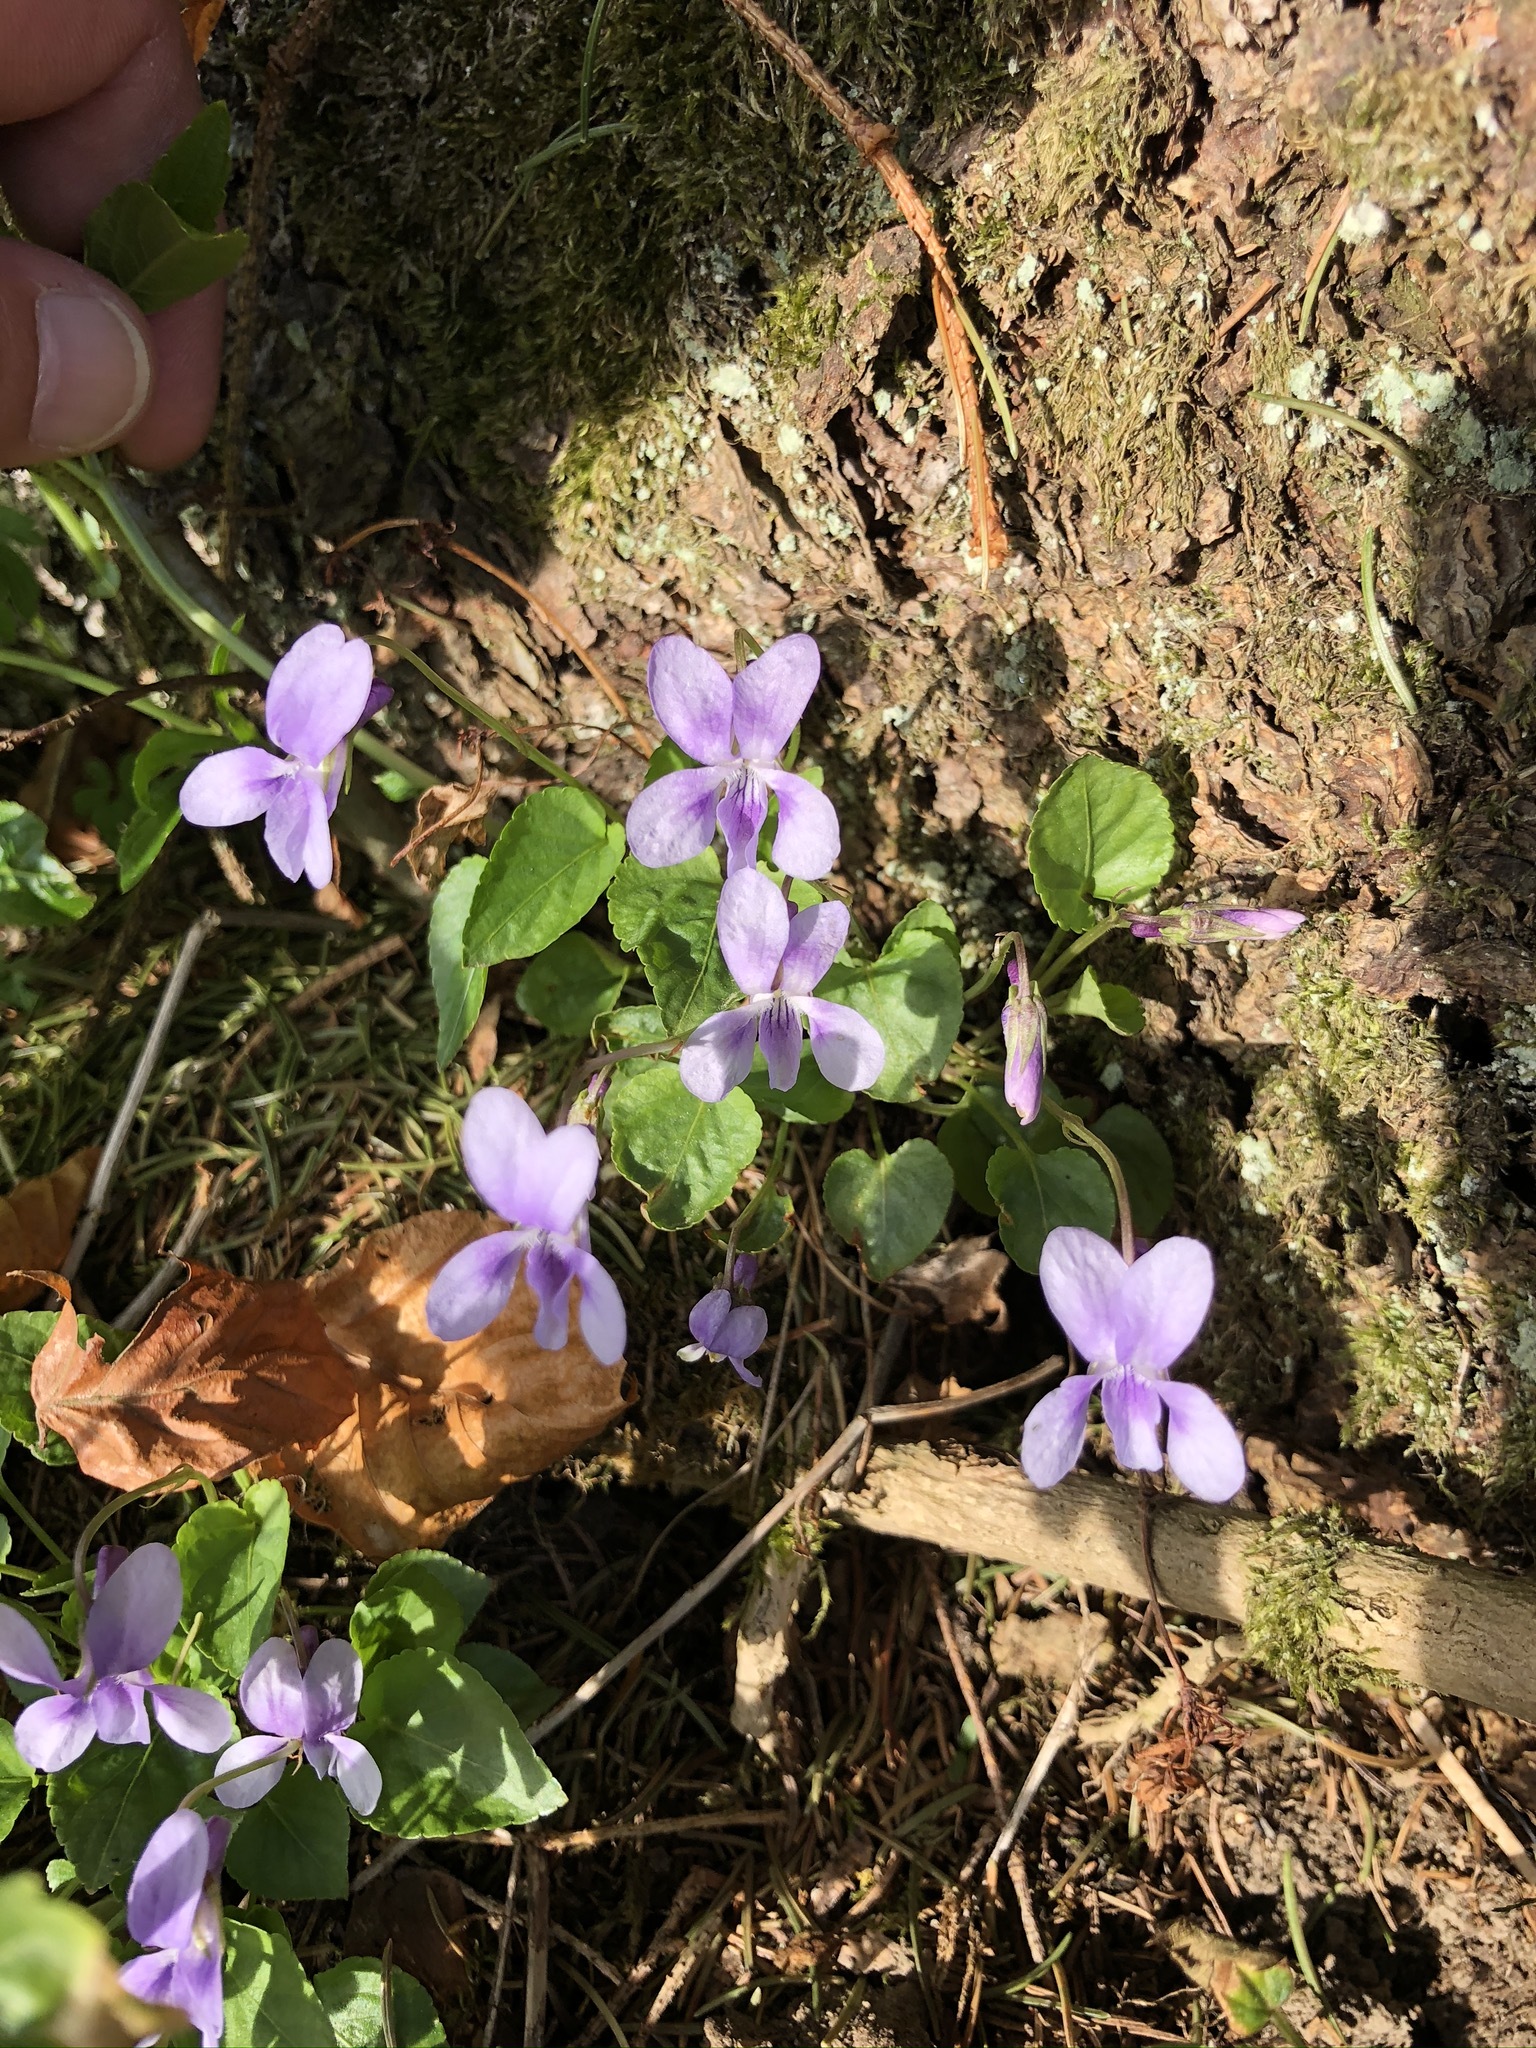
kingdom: Plantae
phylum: Tracheophyta
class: Magnoliopsida
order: Malpighiales
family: Violaceae
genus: Viola
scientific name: Viola reichenbachiana
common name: Early dog-violet
